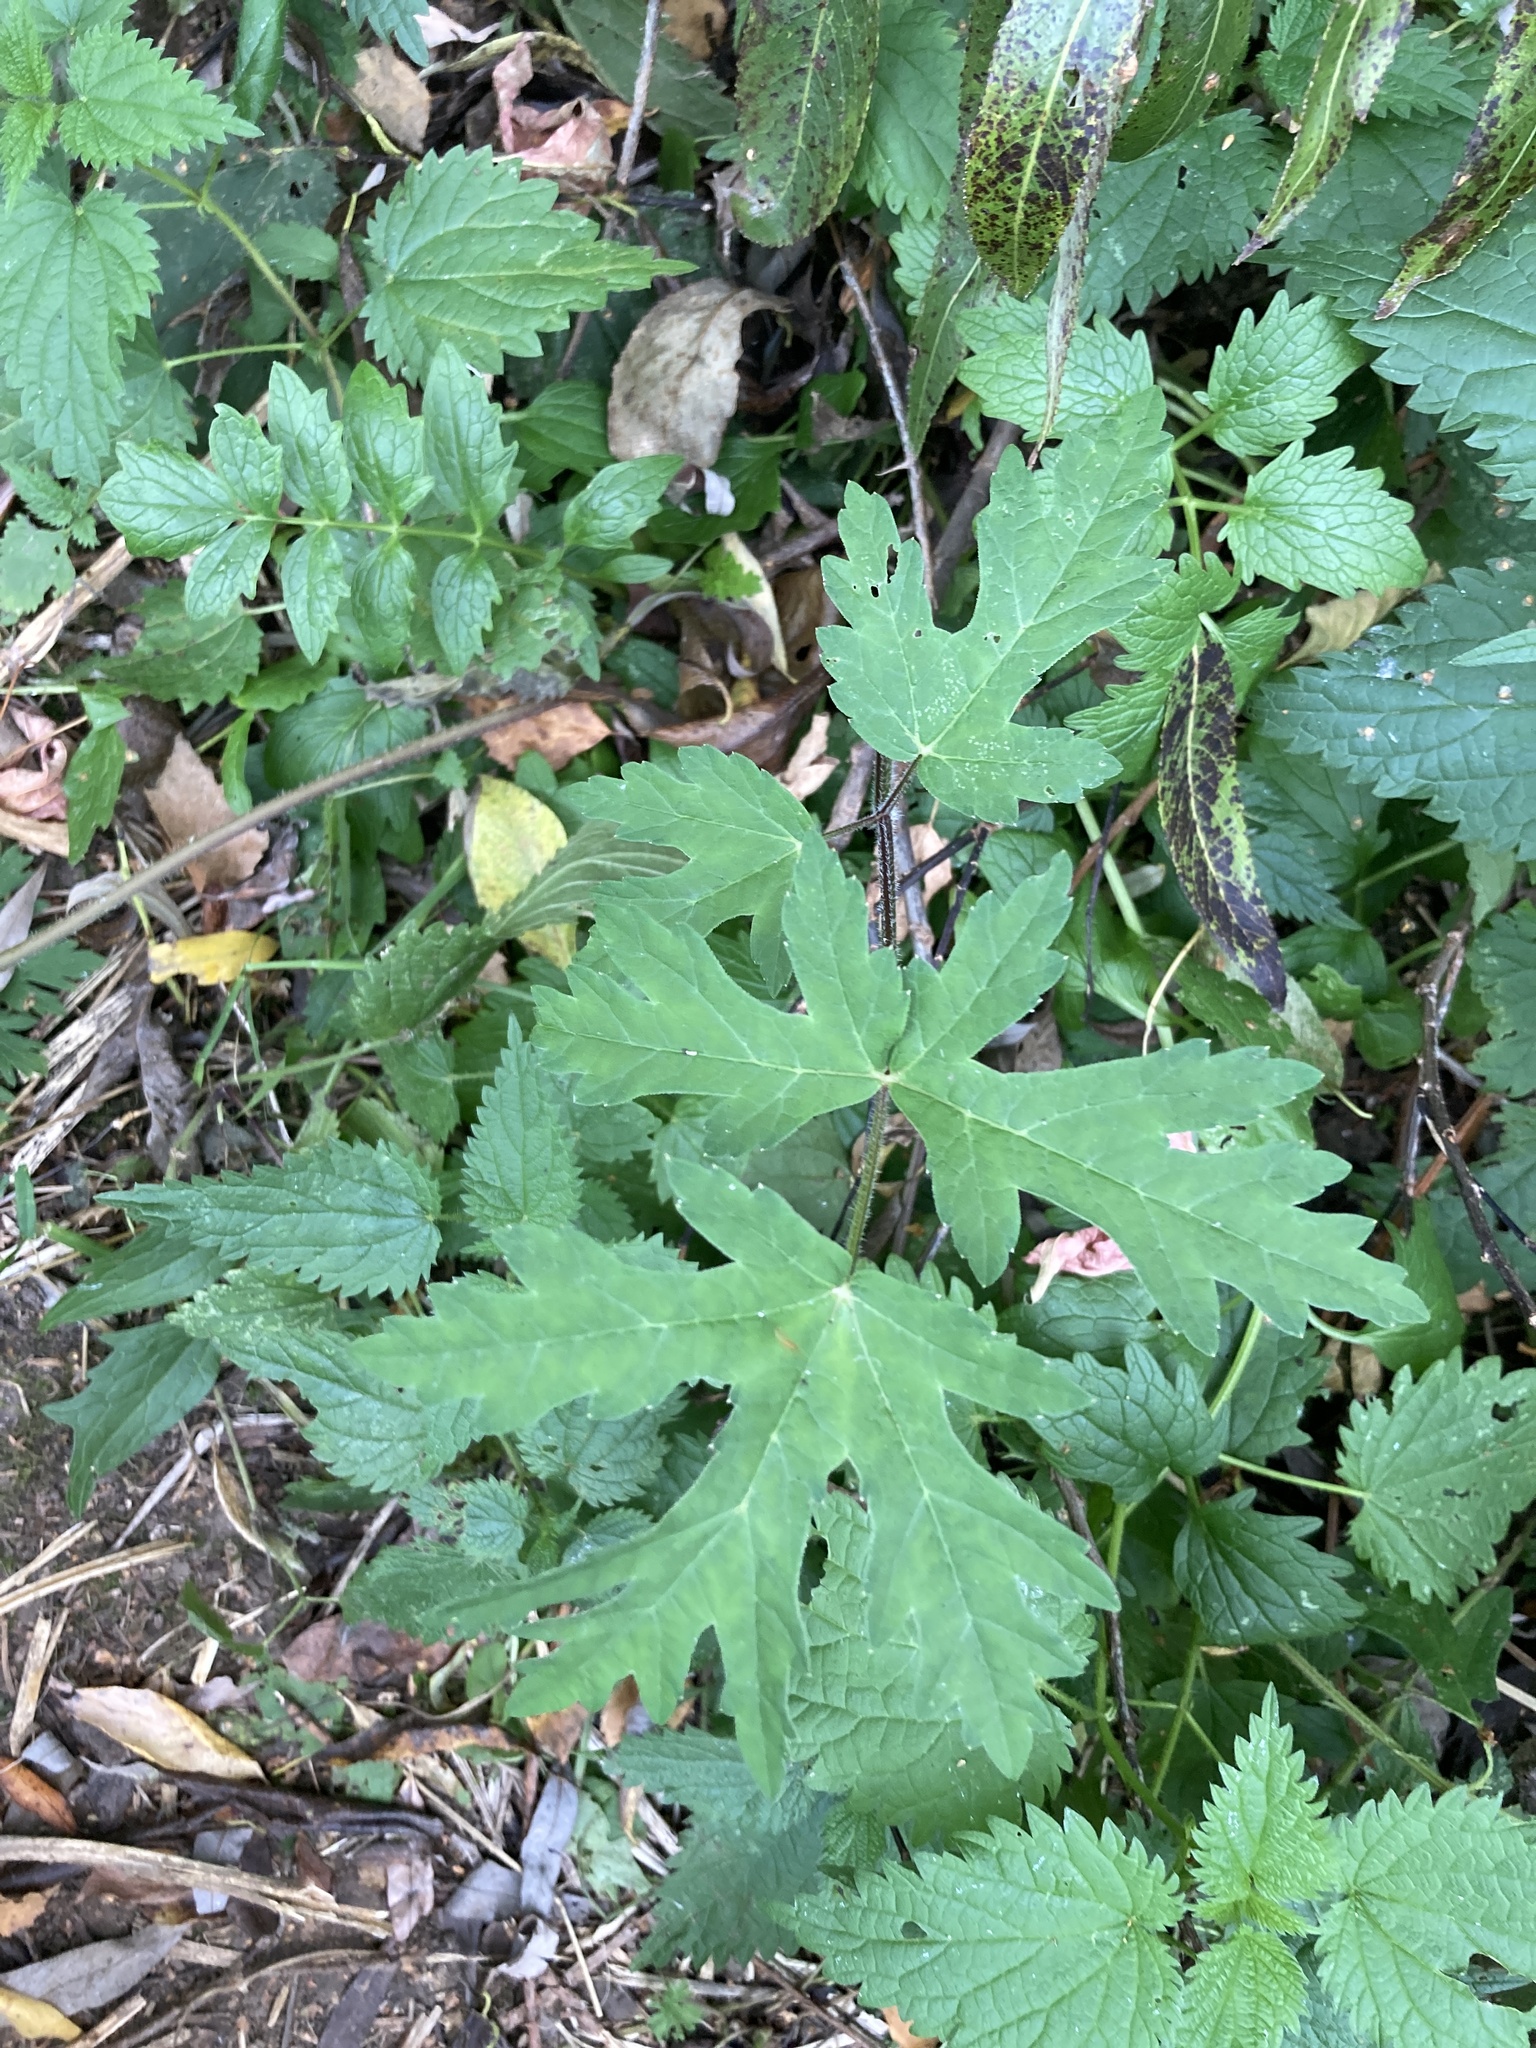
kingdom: Plantae
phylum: Tracheophyta
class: Magnoliopsida
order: Apiales
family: Apiaceae
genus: Heracleum
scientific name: Heracleum sphondylium
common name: Hogweed
